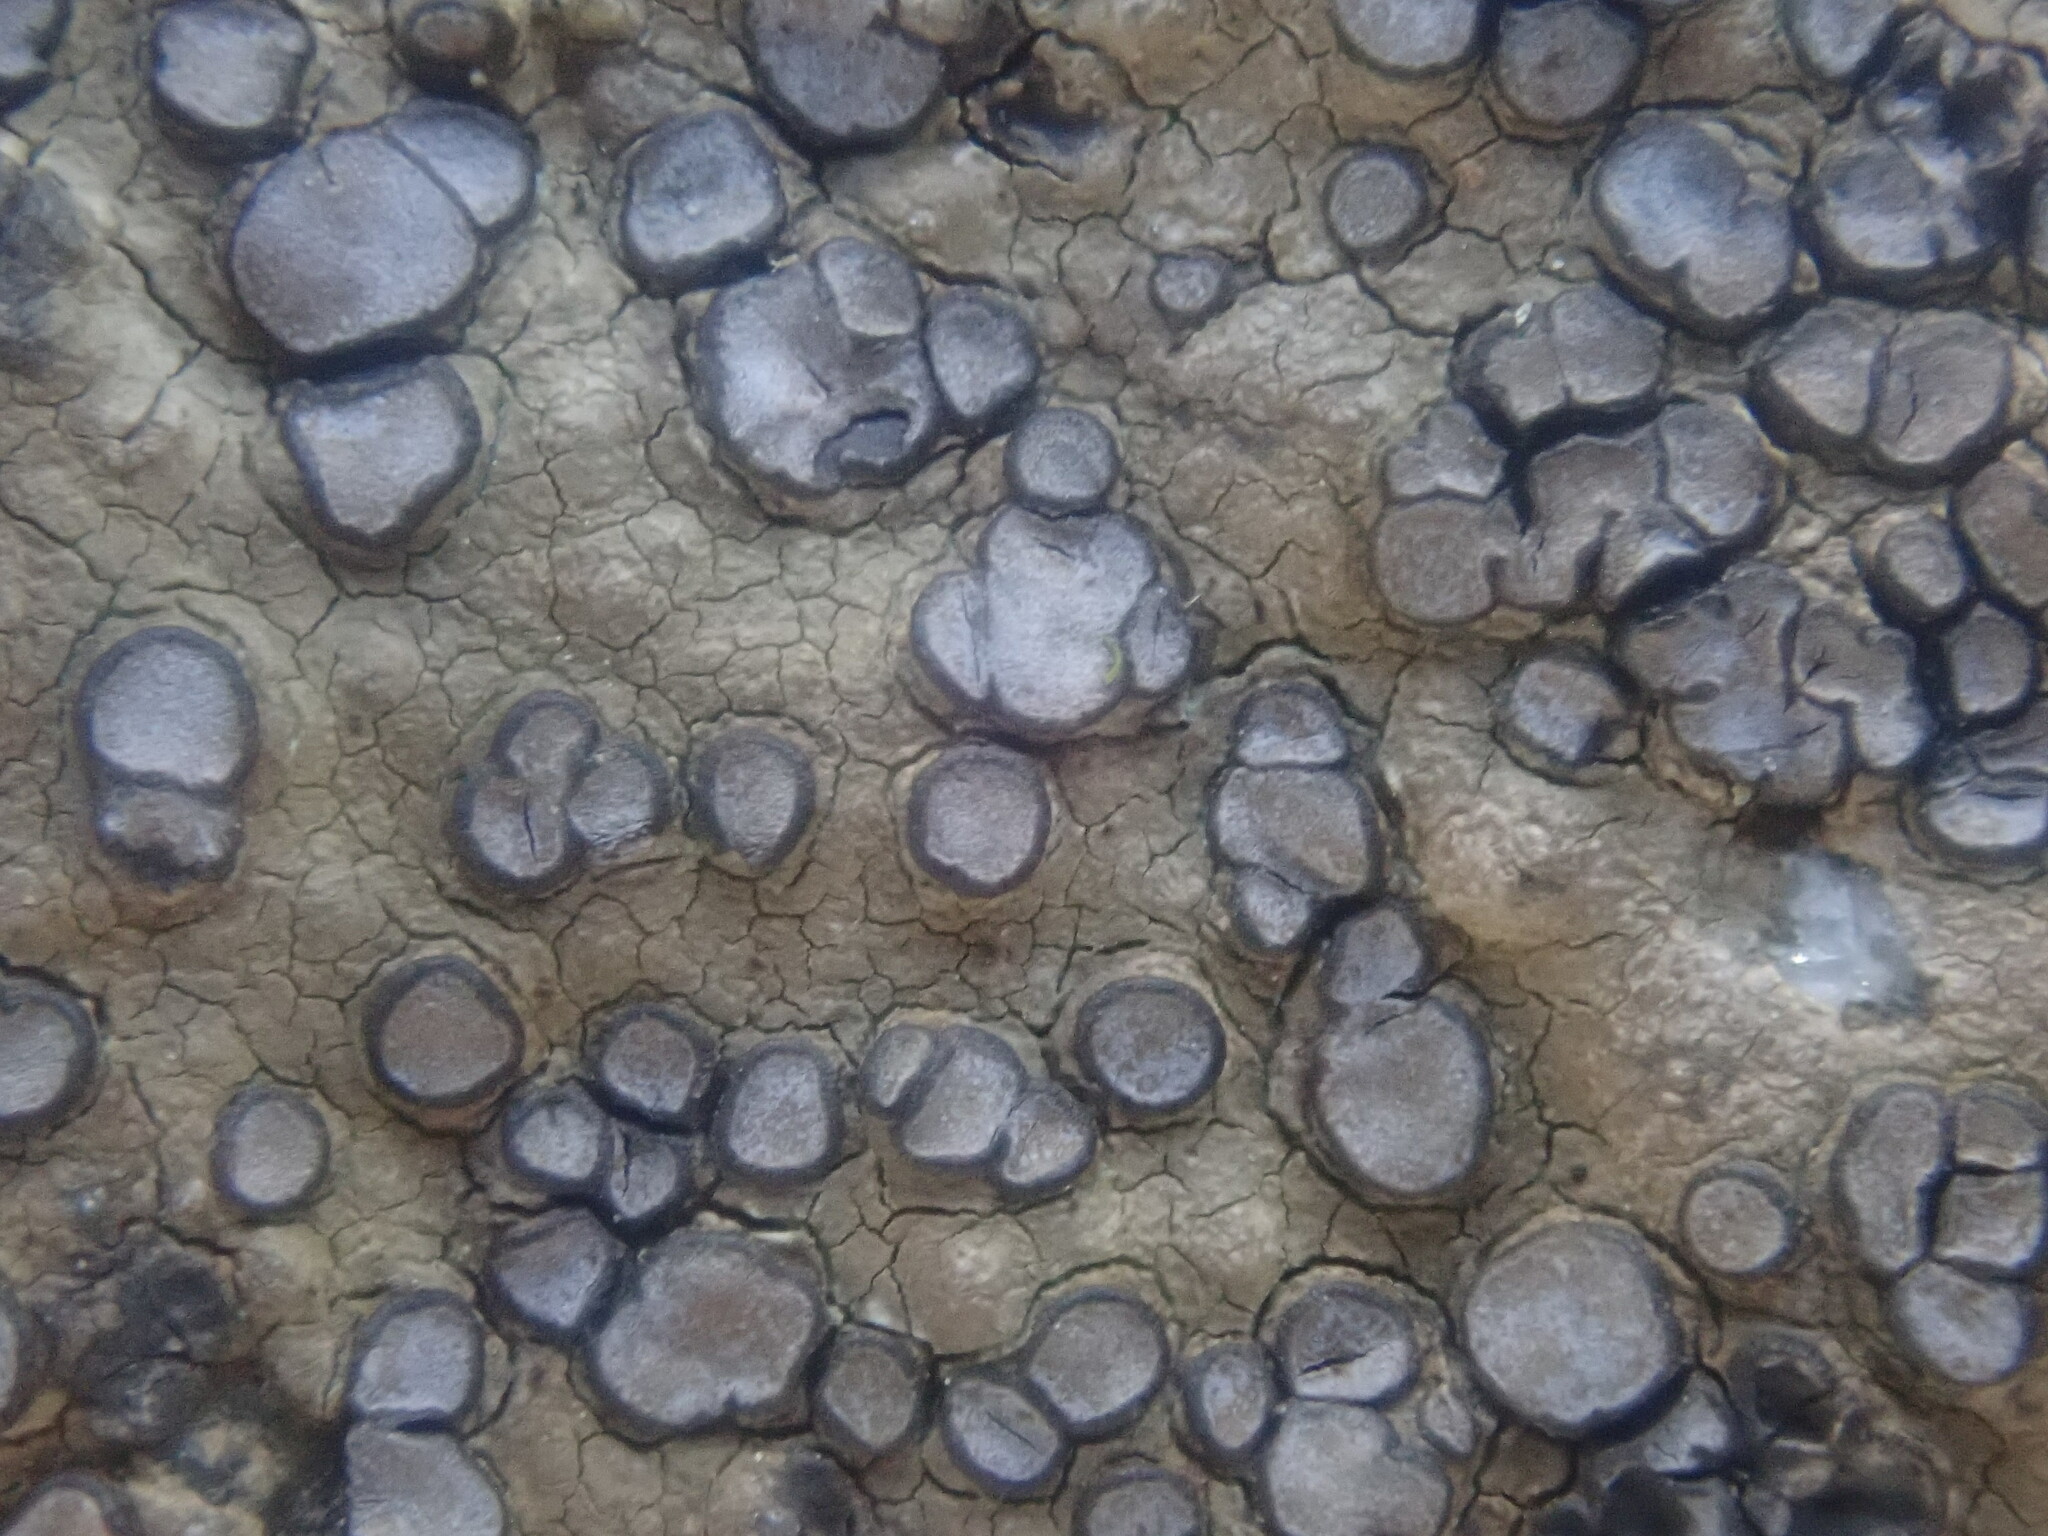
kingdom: Fungi
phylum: Ascomycota
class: Lecanoromycetes
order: Lecideales
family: Lecideaceae
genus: Porpidia
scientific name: Porpidia albocaerulescens
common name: Smokey-eyed boulder lichen
